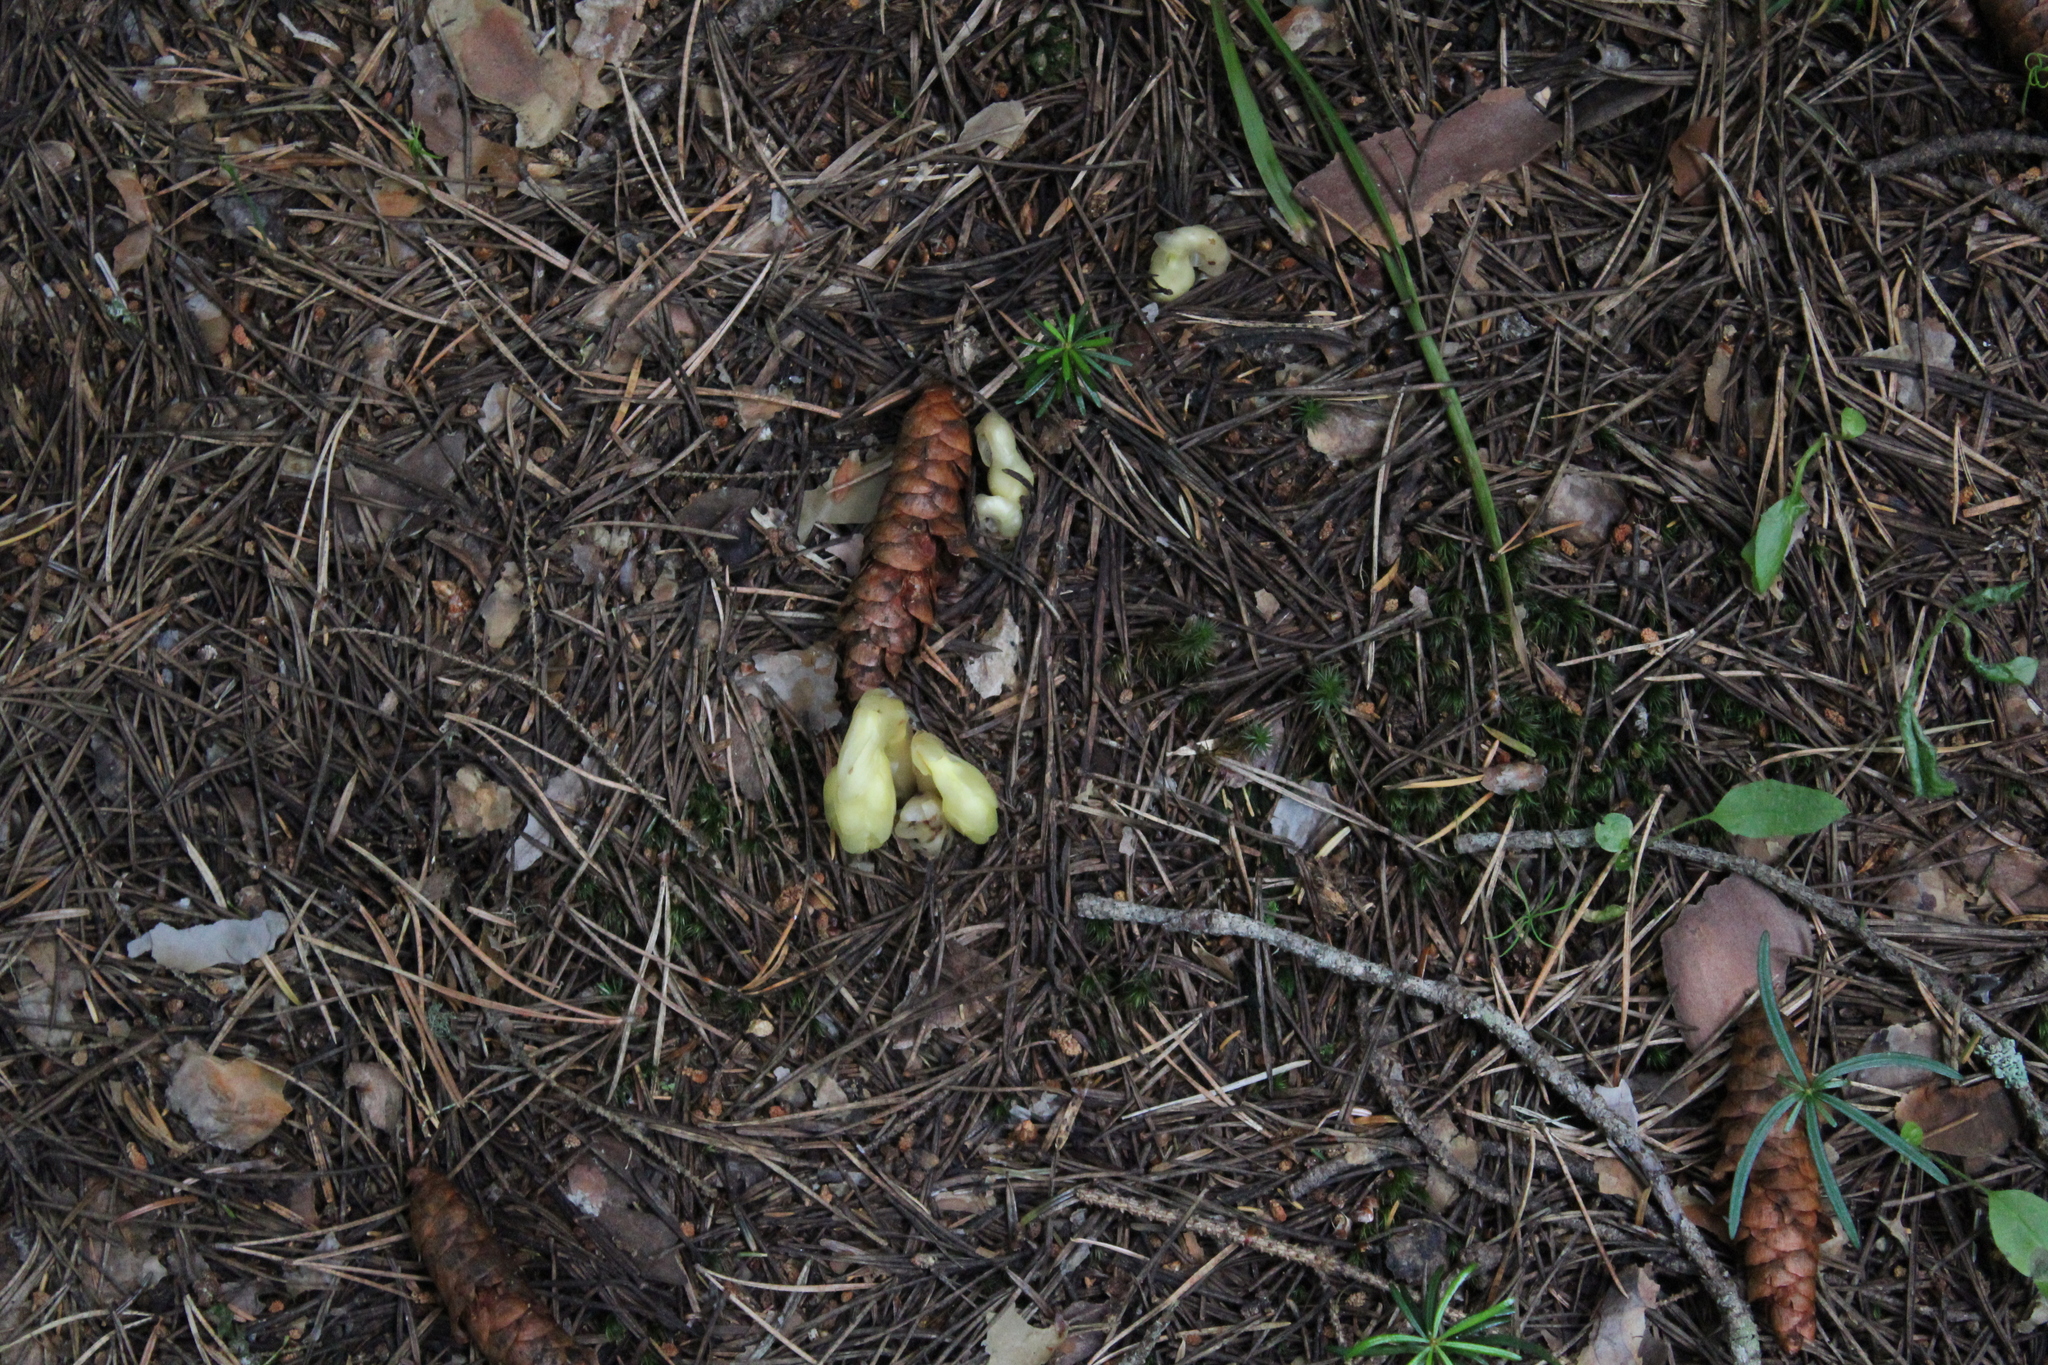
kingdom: Plantae
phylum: Tracheophyta
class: Magnoliopsida
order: Ericales
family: Ericaceae
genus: Hypopitys
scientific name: Hypopitys monotropa
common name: Yellow bird's-nest
